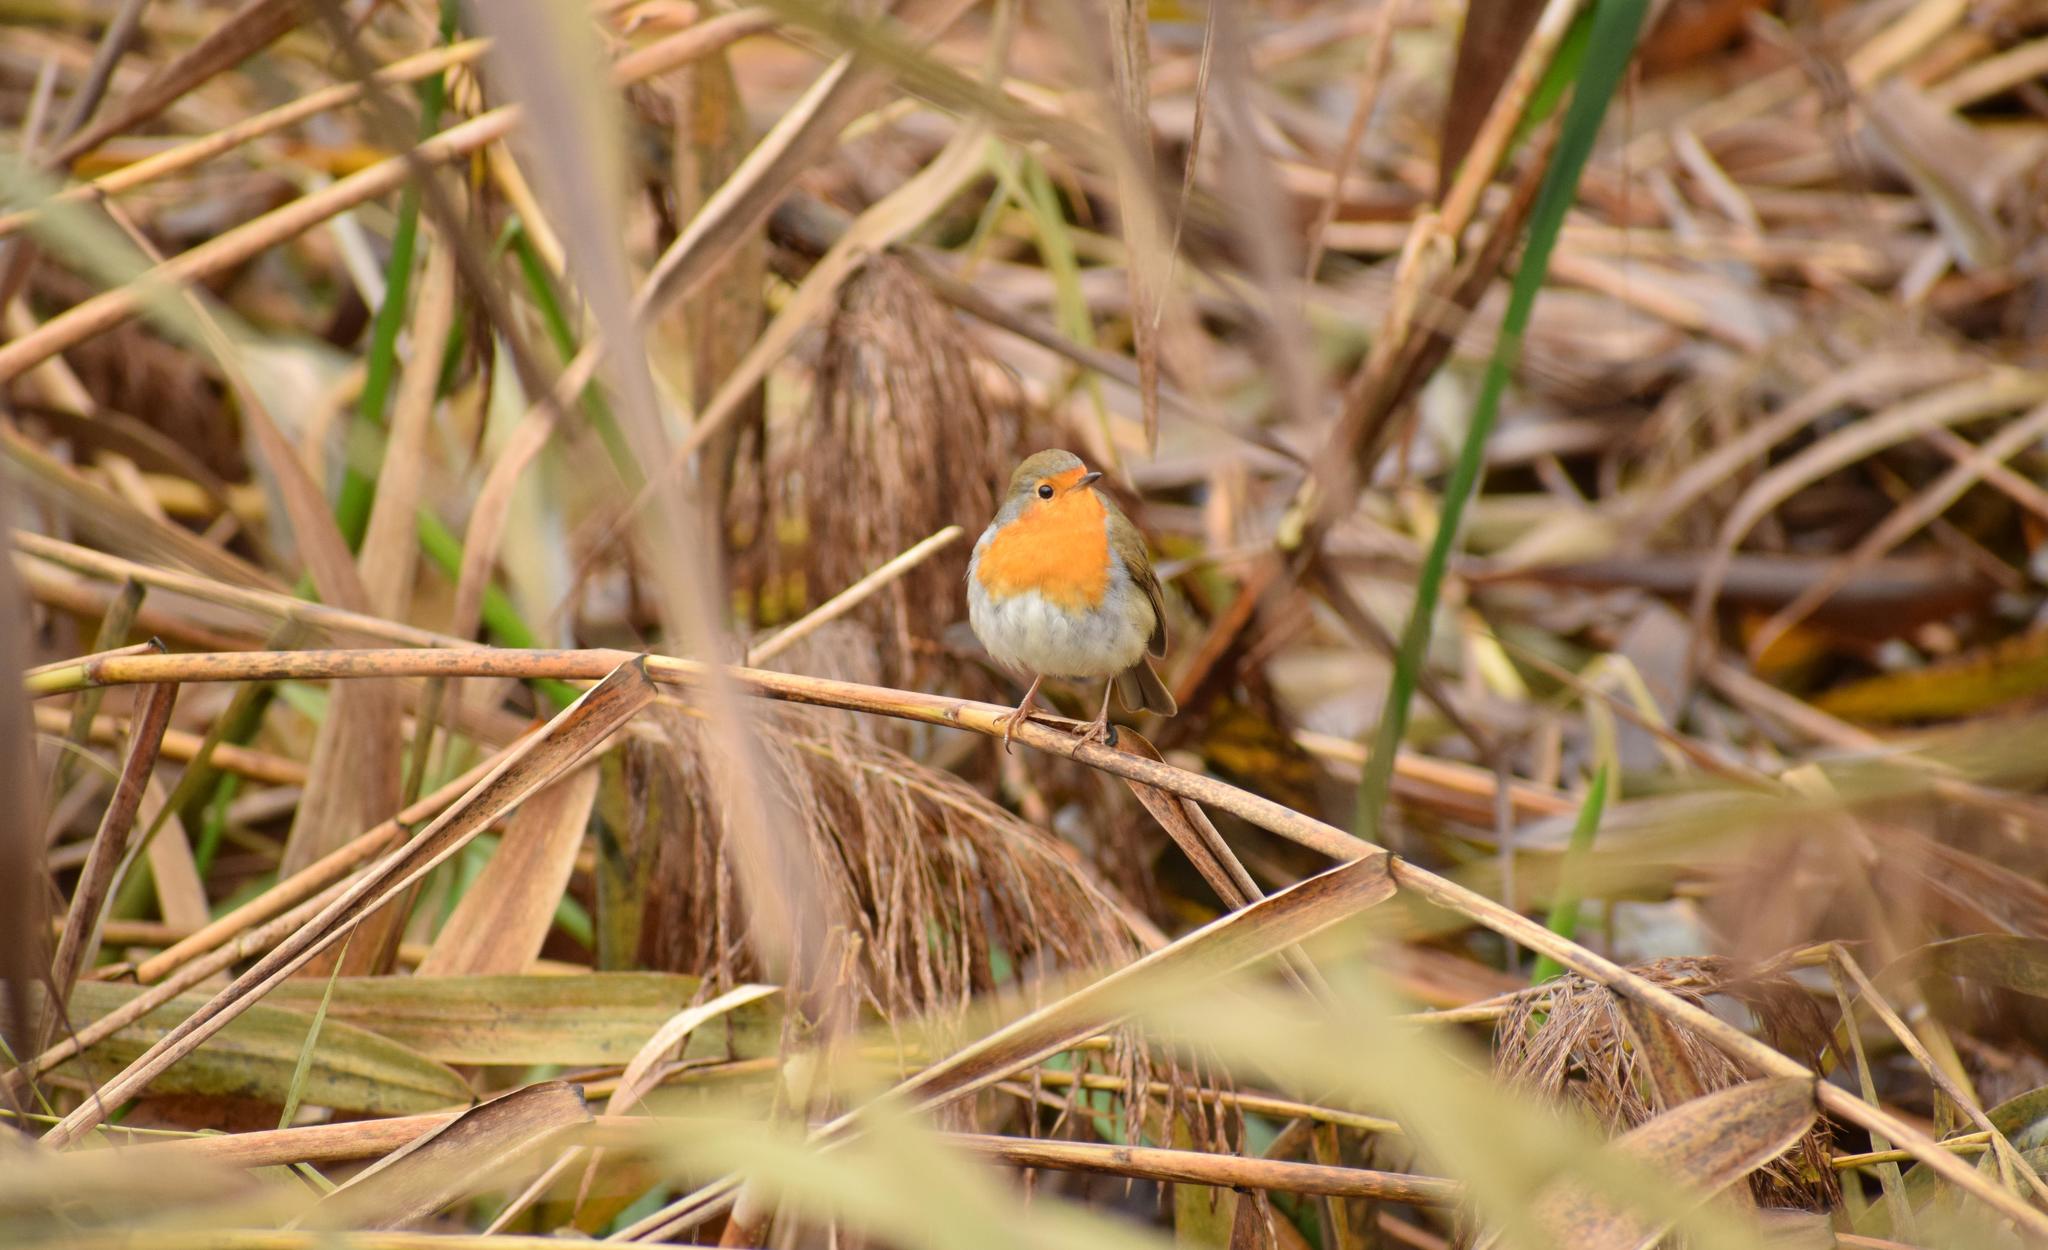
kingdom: Animalia
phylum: Chordata
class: Aves
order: Passeriformes
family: Muscicapidae
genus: Erithacus
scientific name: Erithacus rubecula
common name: European robin
